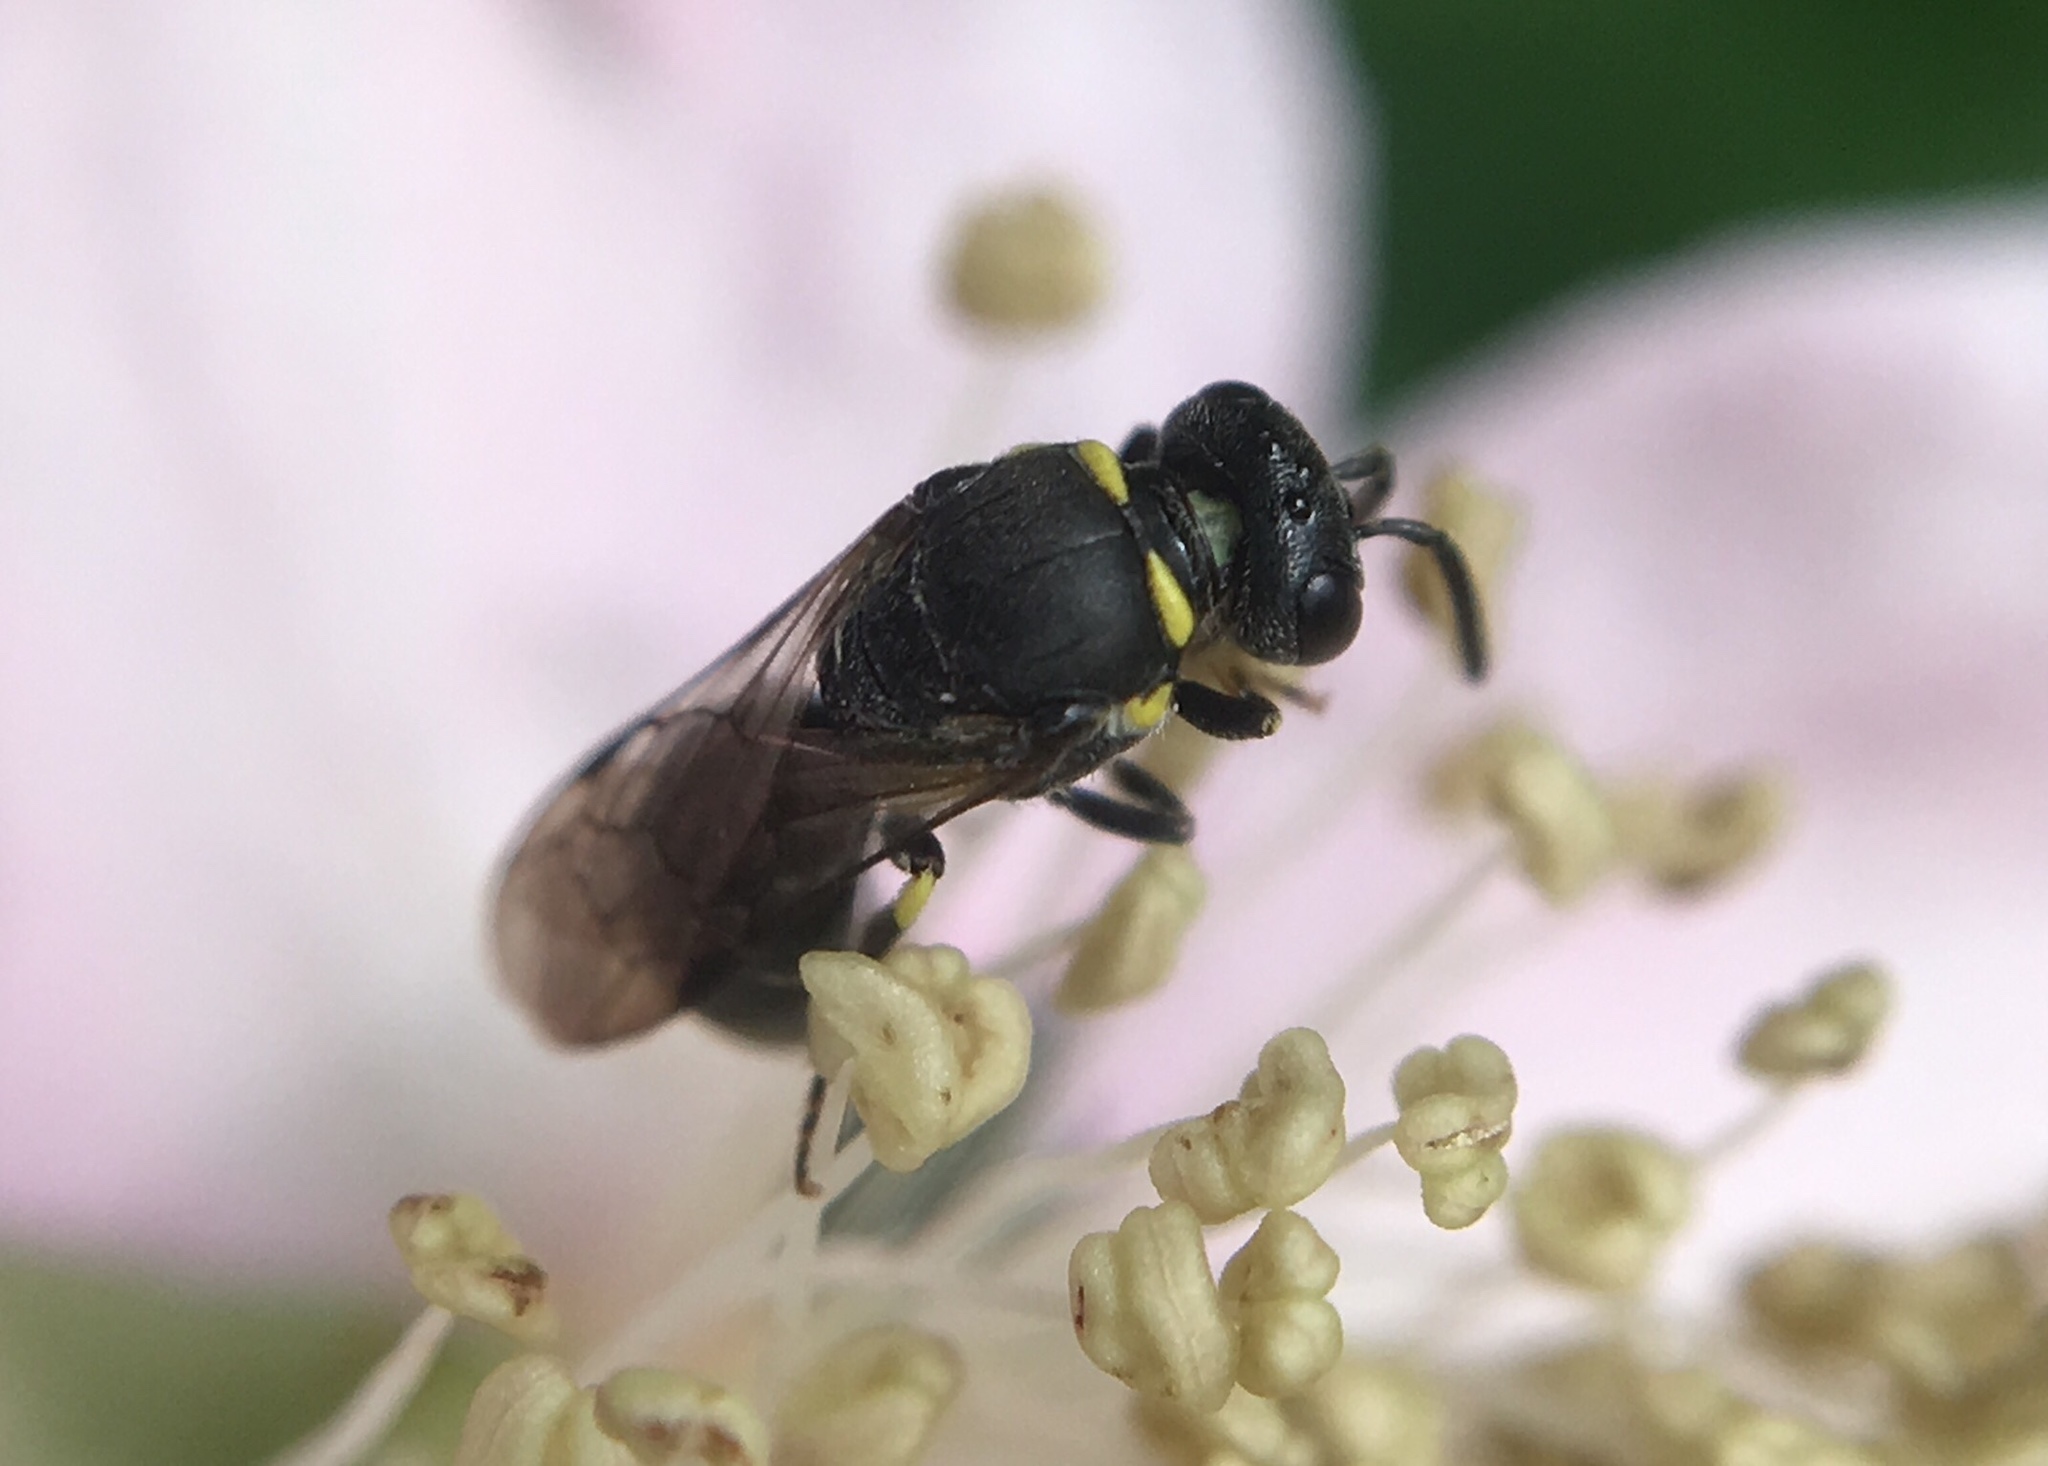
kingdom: Animalia
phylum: Arthropoda
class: Insecta
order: Hymenoptera
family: Colletidae
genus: Hylaeus
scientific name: Hylaeus modestus
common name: Yellow-faced bee
